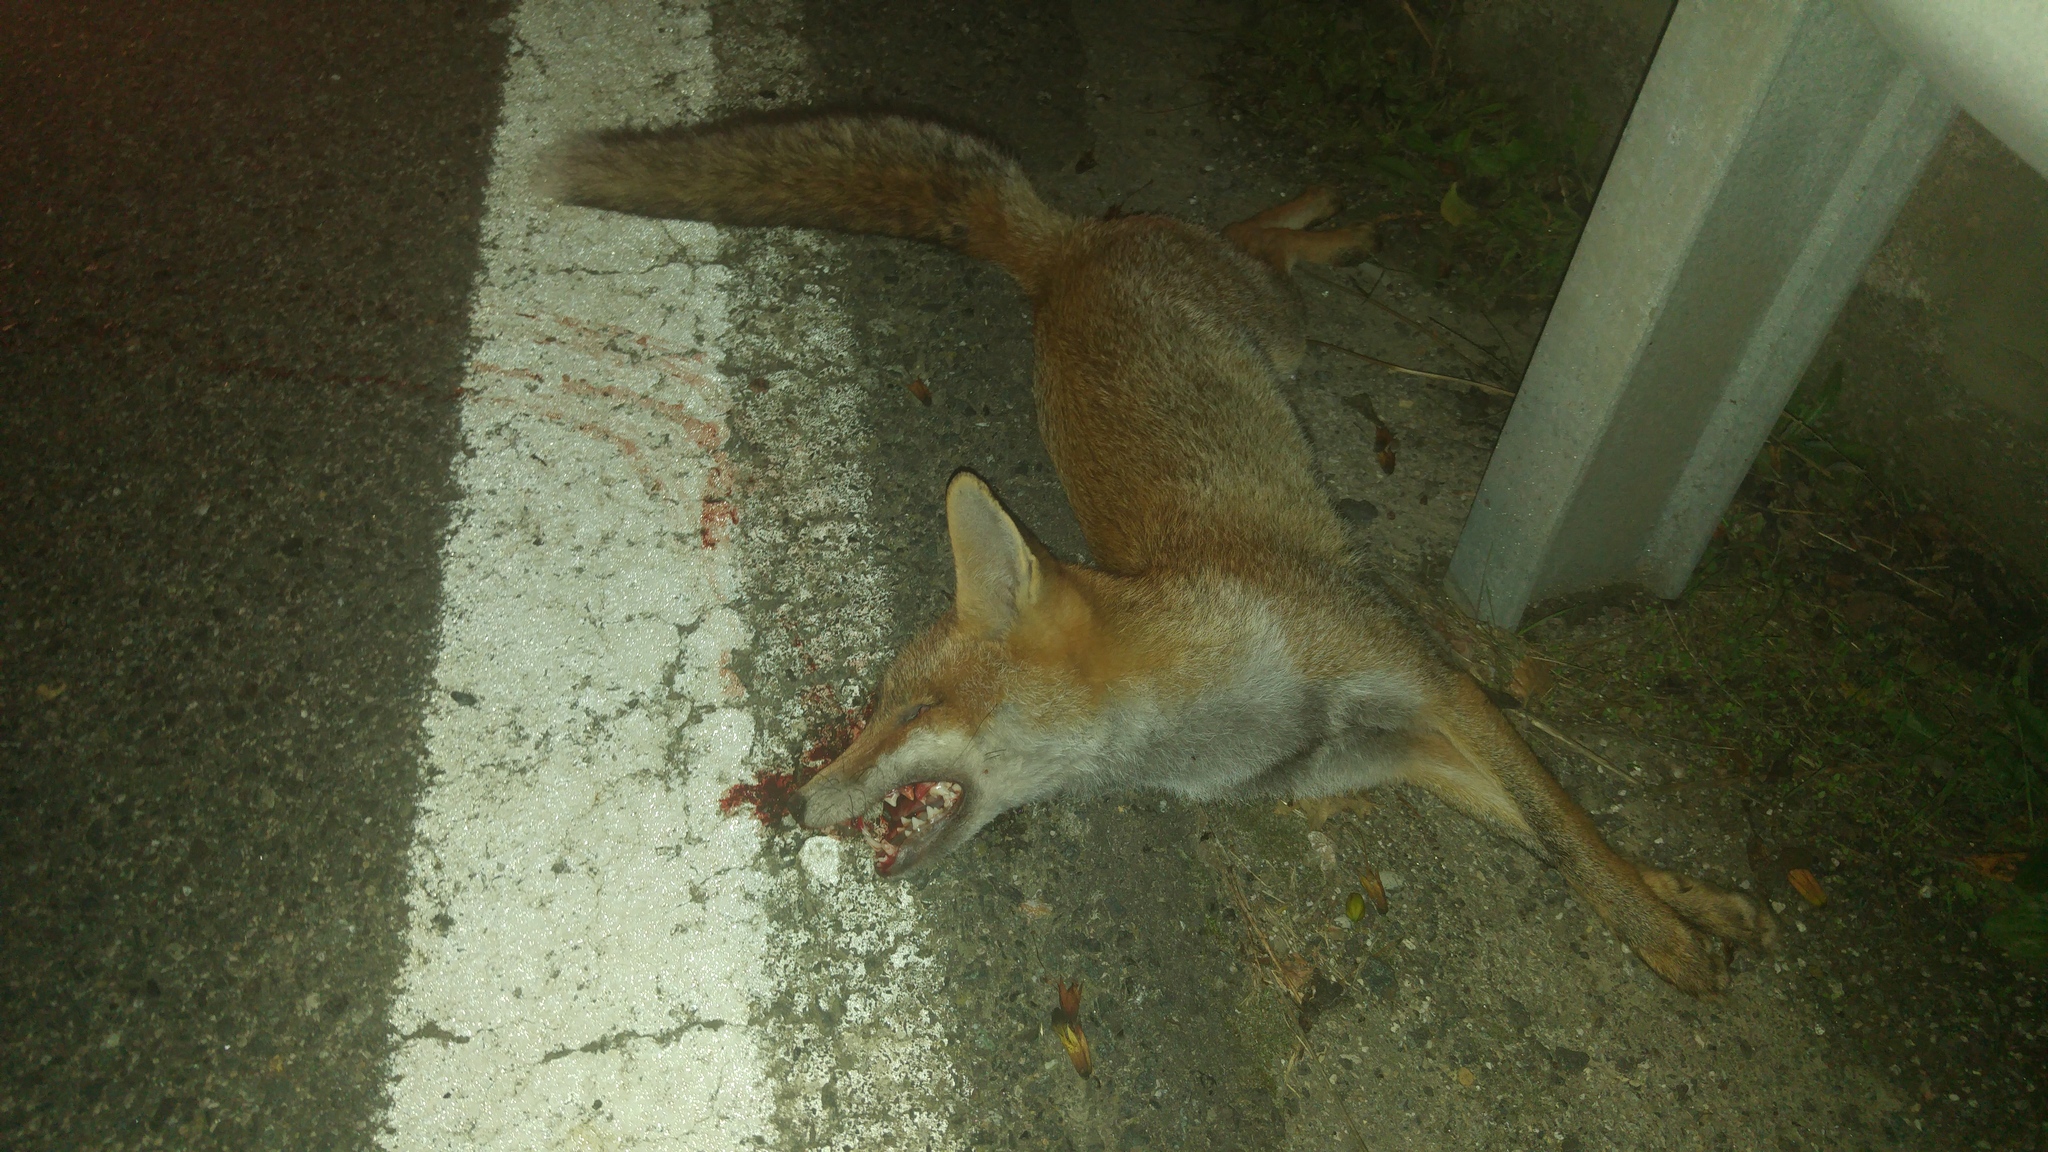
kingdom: Animalia
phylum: Chordata
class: Mammalia
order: Carnivora
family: Canidae
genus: Vulpes
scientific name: Vulpes vulpes
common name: Red fox
